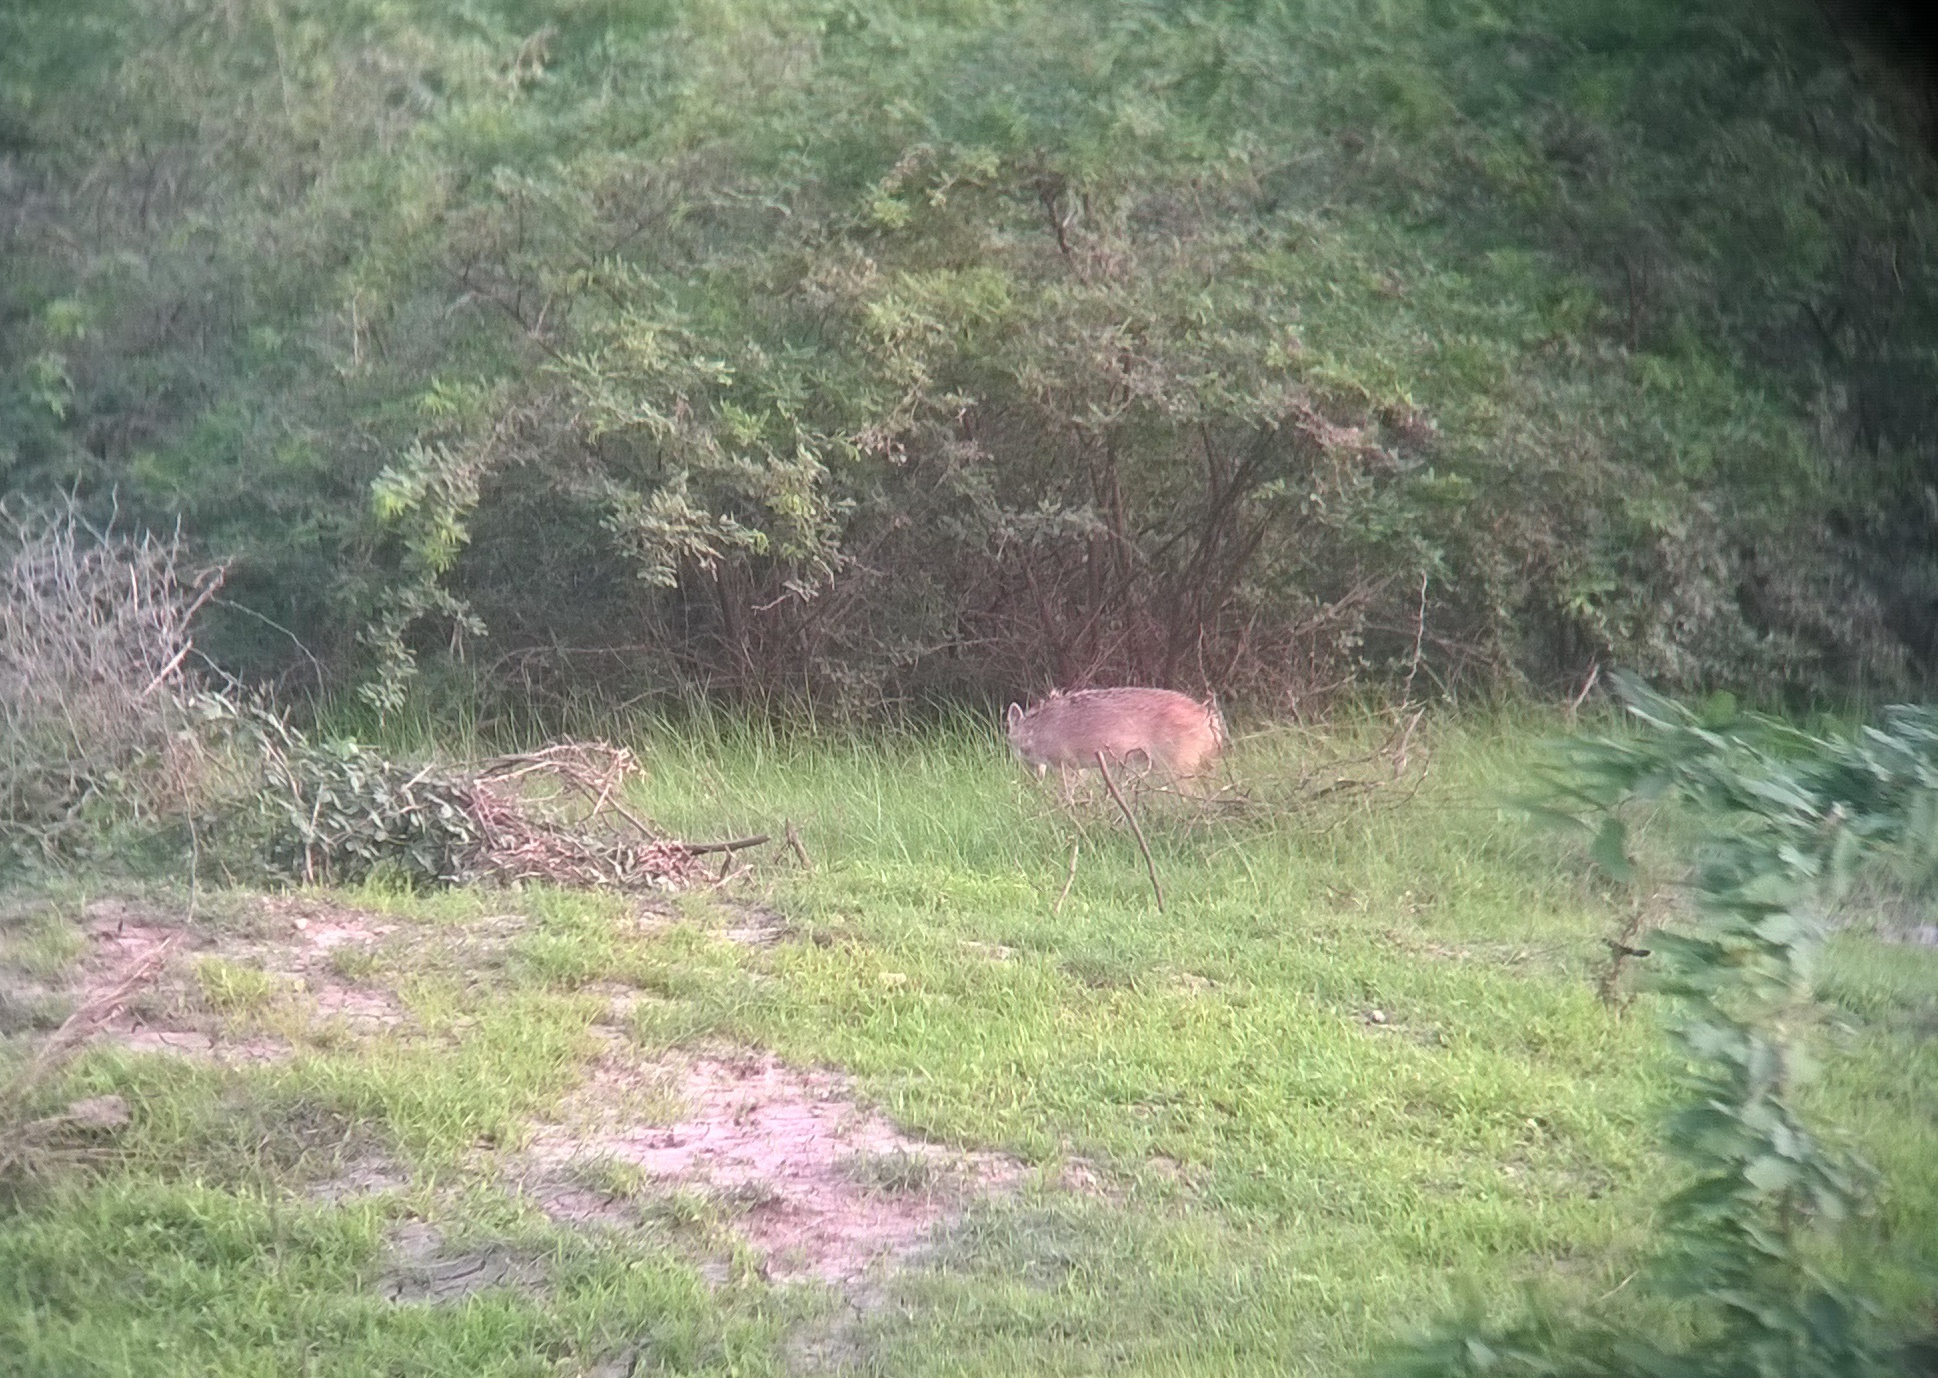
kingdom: Animalia
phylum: Chordata
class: Mammalia
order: Carnivora
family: Canidae
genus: Canis
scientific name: Canis aureus
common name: Golden jackal
